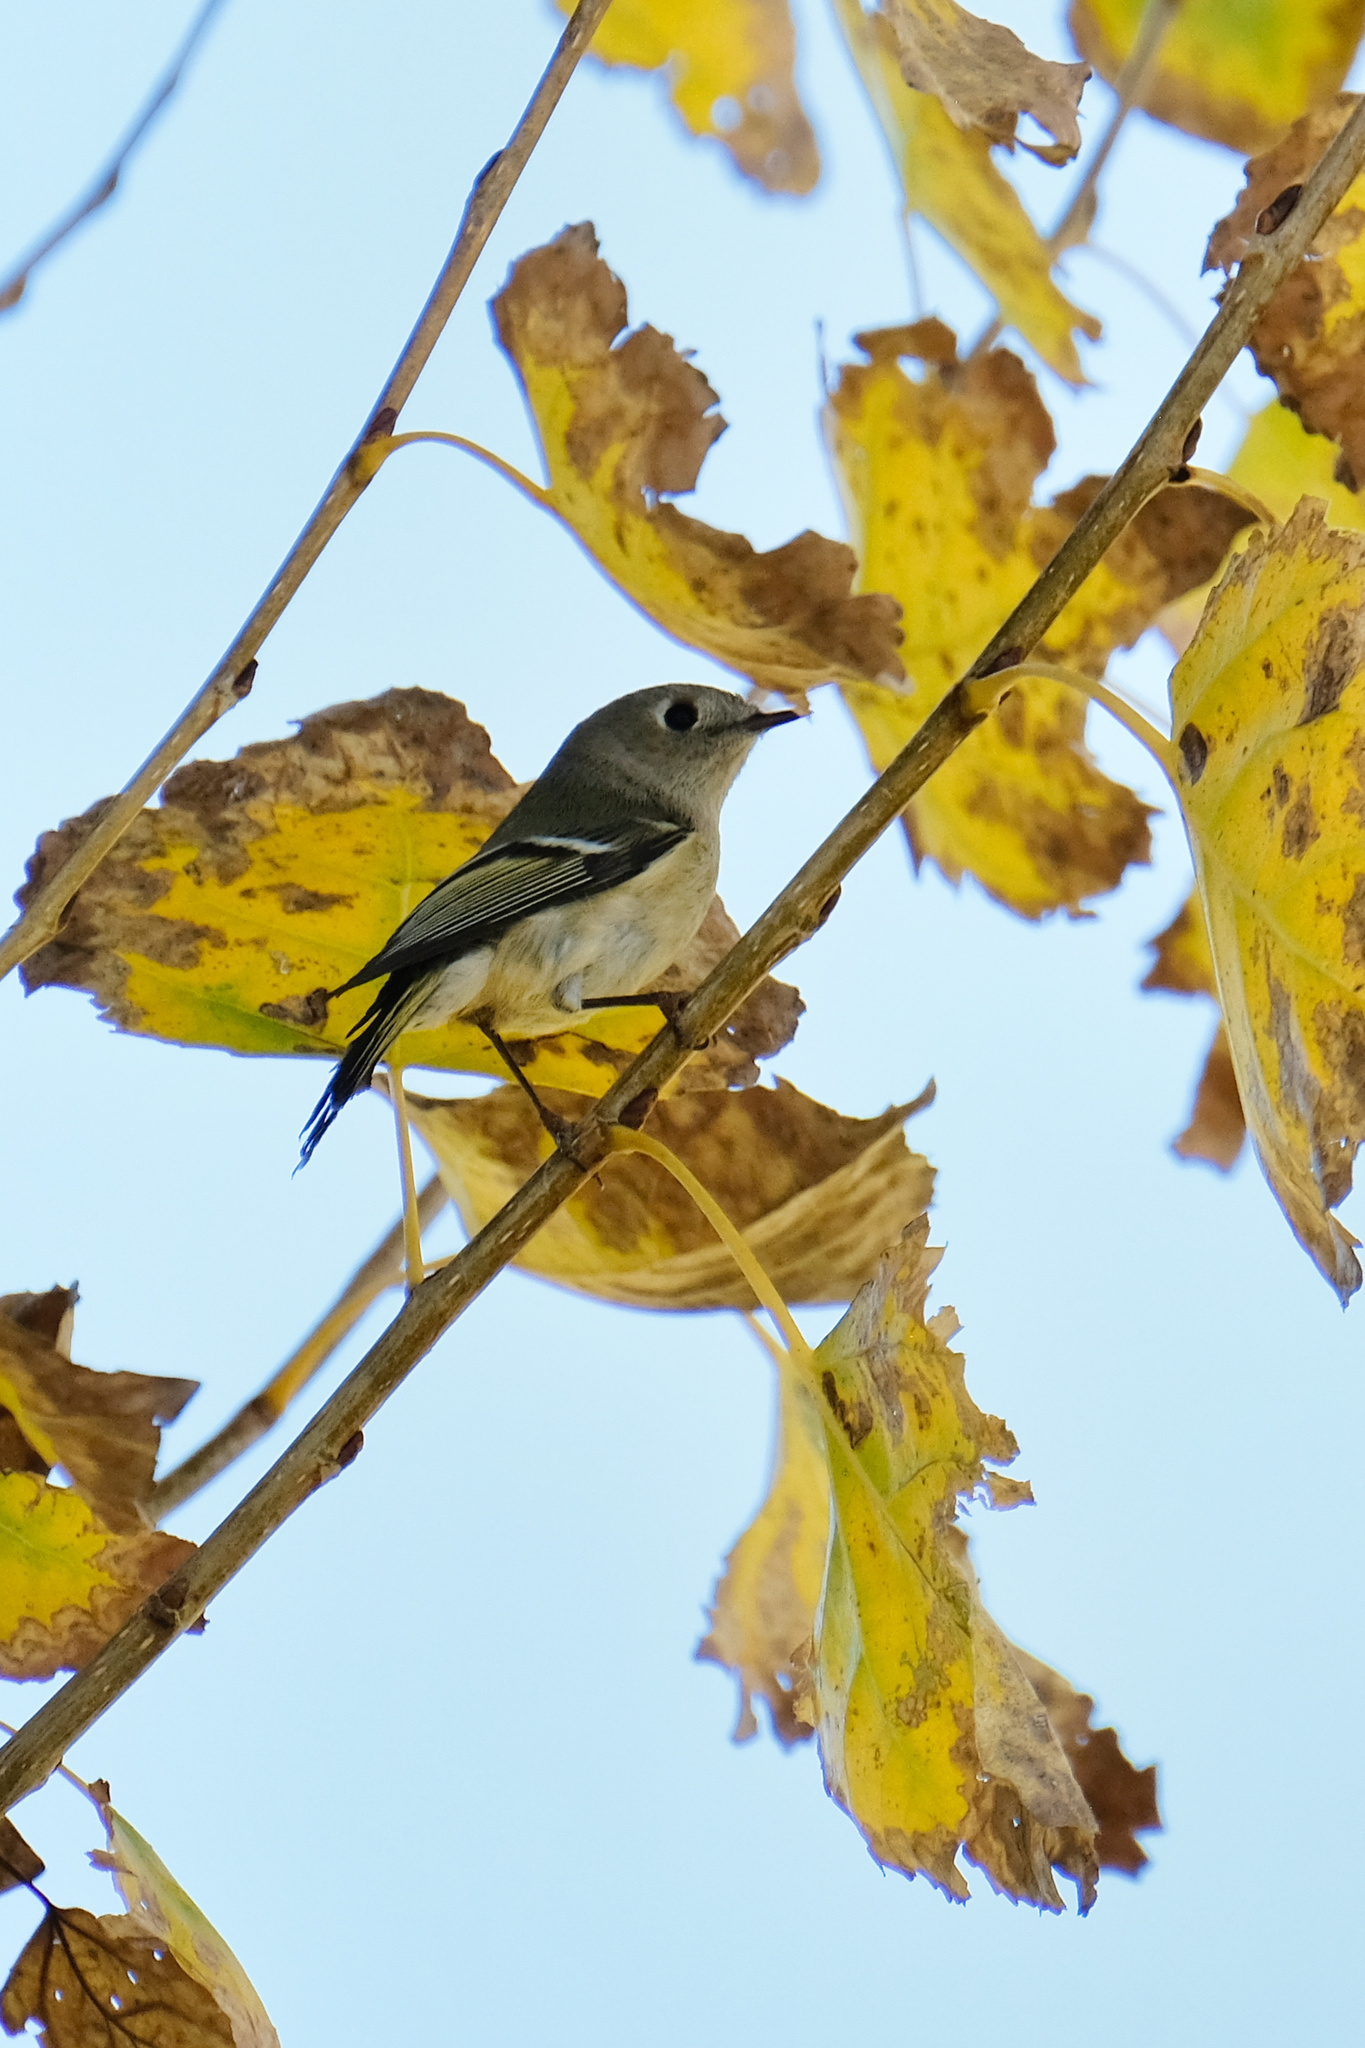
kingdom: Animalia
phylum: Chordata
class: Aves
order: Passeriformes
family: Regulidae
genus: Regulus
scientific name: Regulus calendula
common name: Ruby-crowned kinglet
